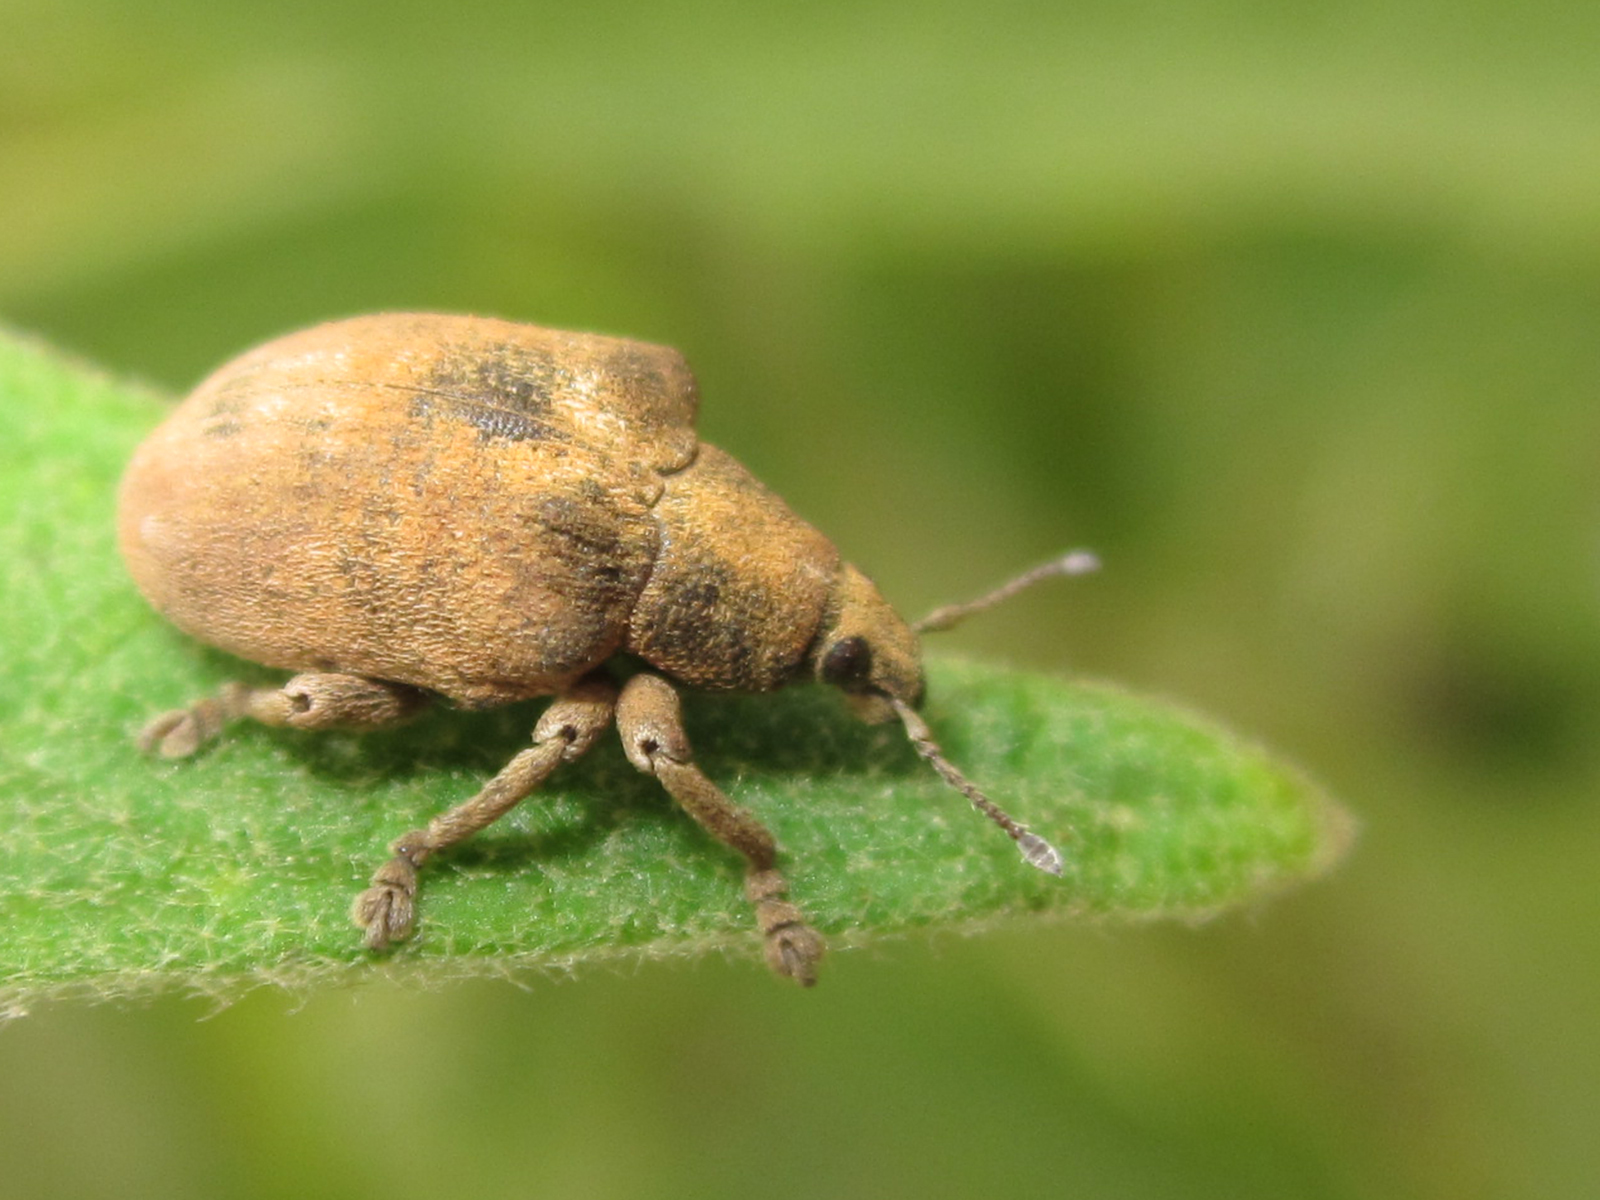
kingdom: Animalia
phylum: Arthropoda
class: Insecta
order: Coleoptera
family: Curculionidae
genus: Gonipterus
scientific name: Gonipterus platensis
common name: Eucalyptus snout beetle
